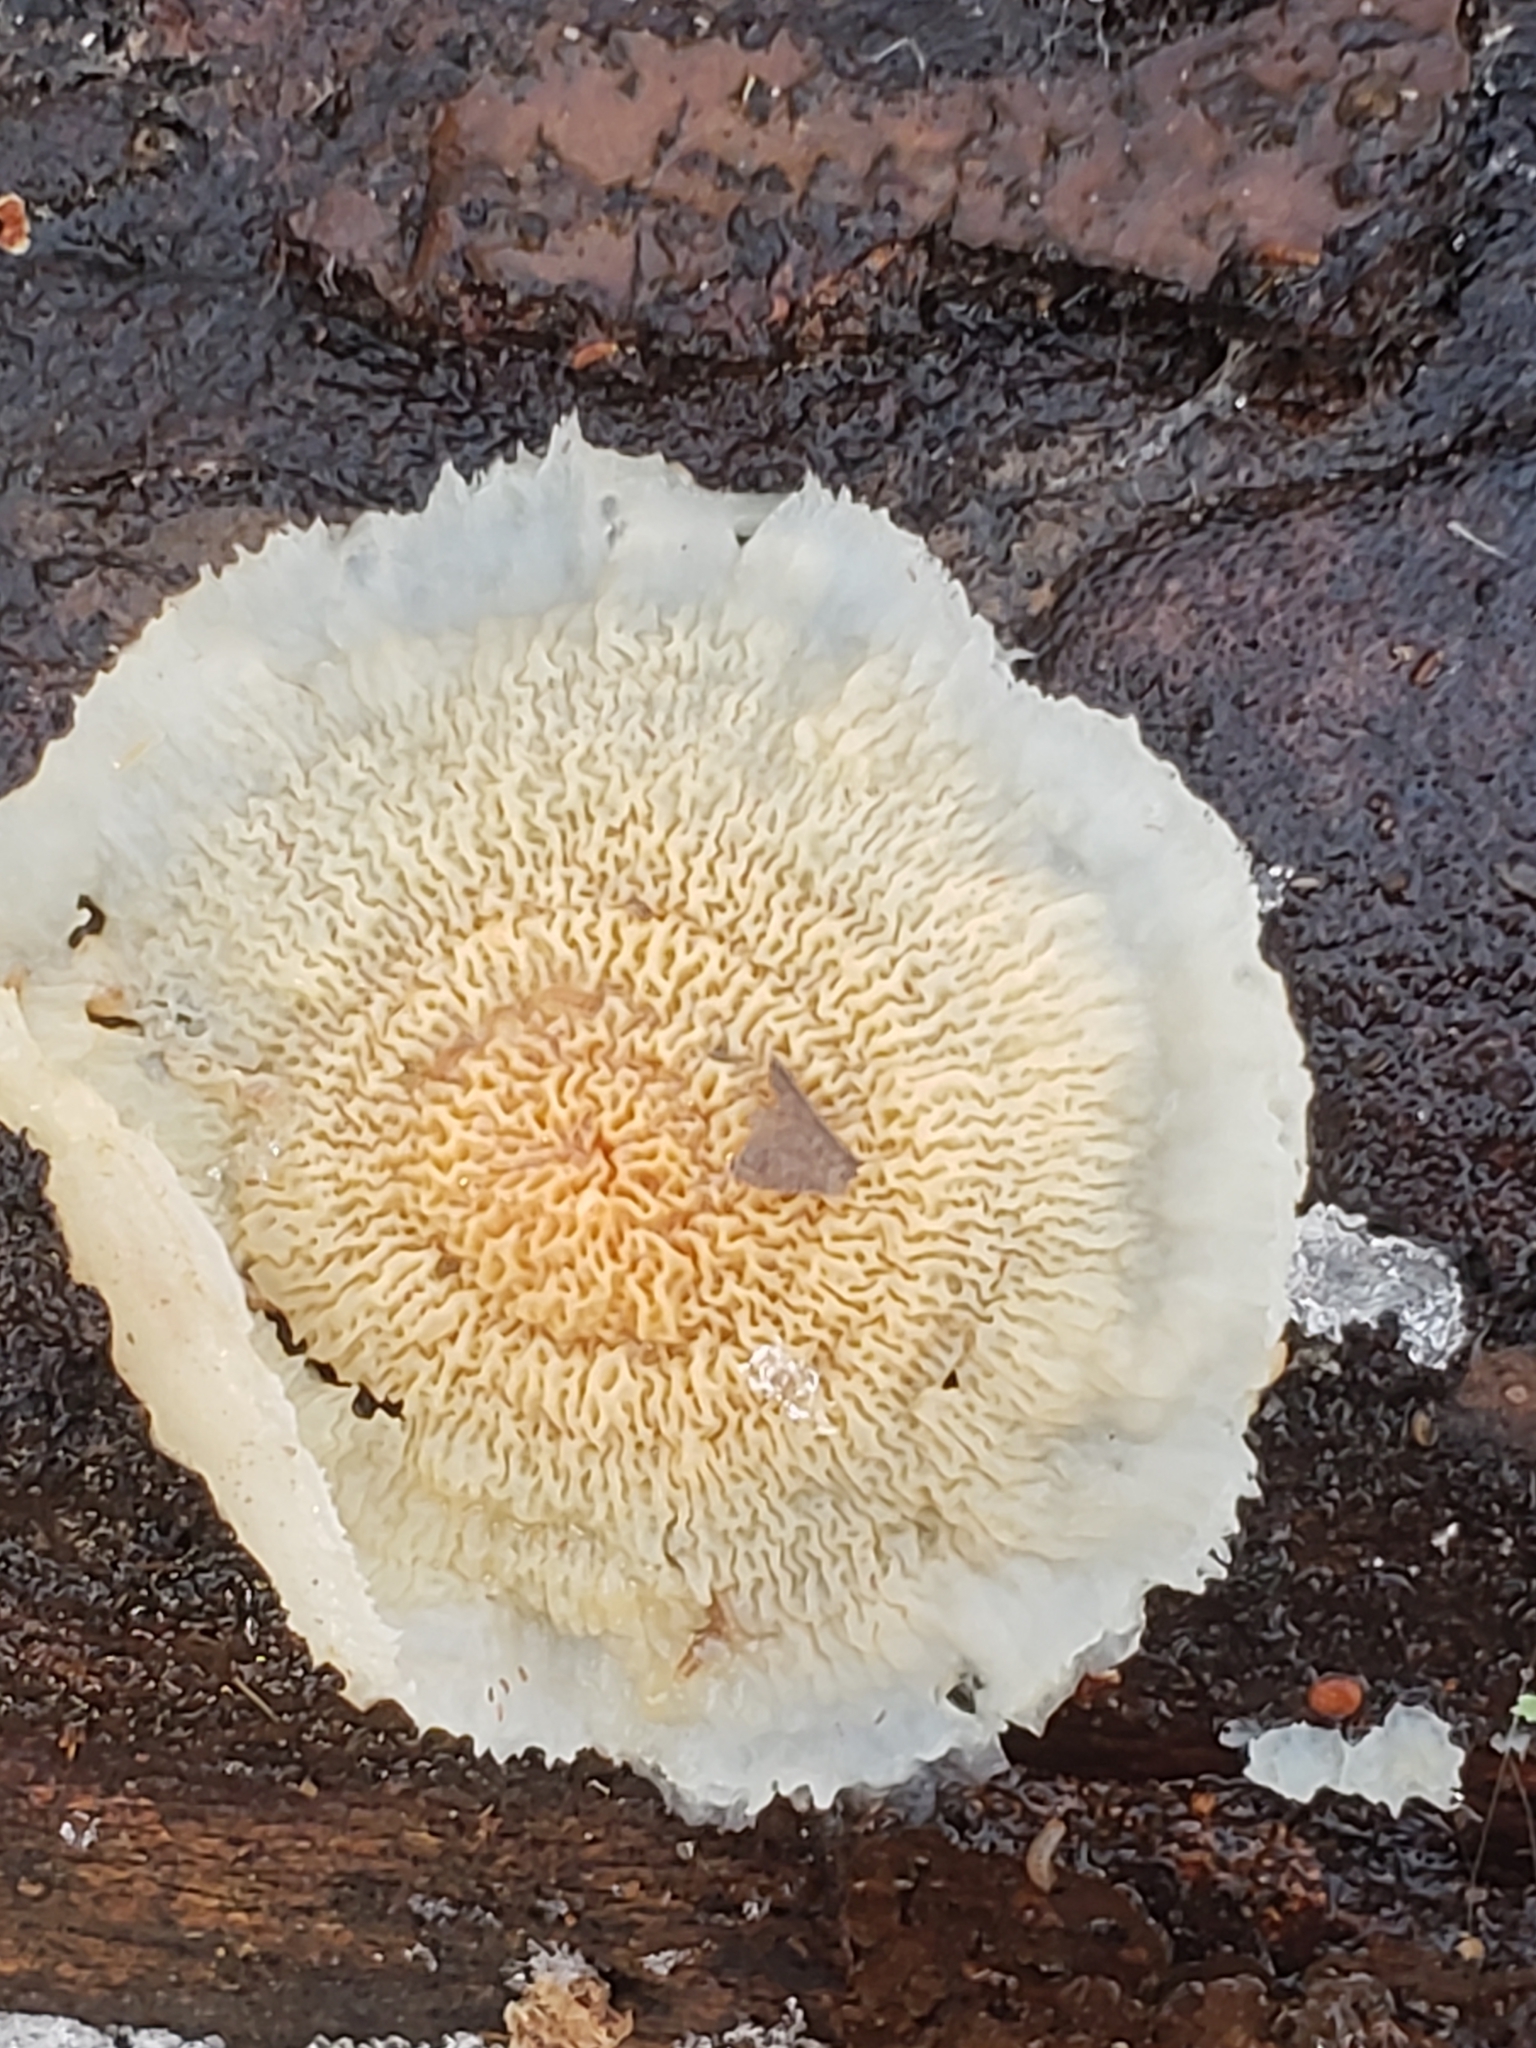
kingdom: Fungi
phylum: Basidiomycota
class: Agaricomycetes
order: Polyporales
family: Meruliaceae
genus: Phlebia
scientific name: Phlebia tremellosa
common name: Jelly rot
